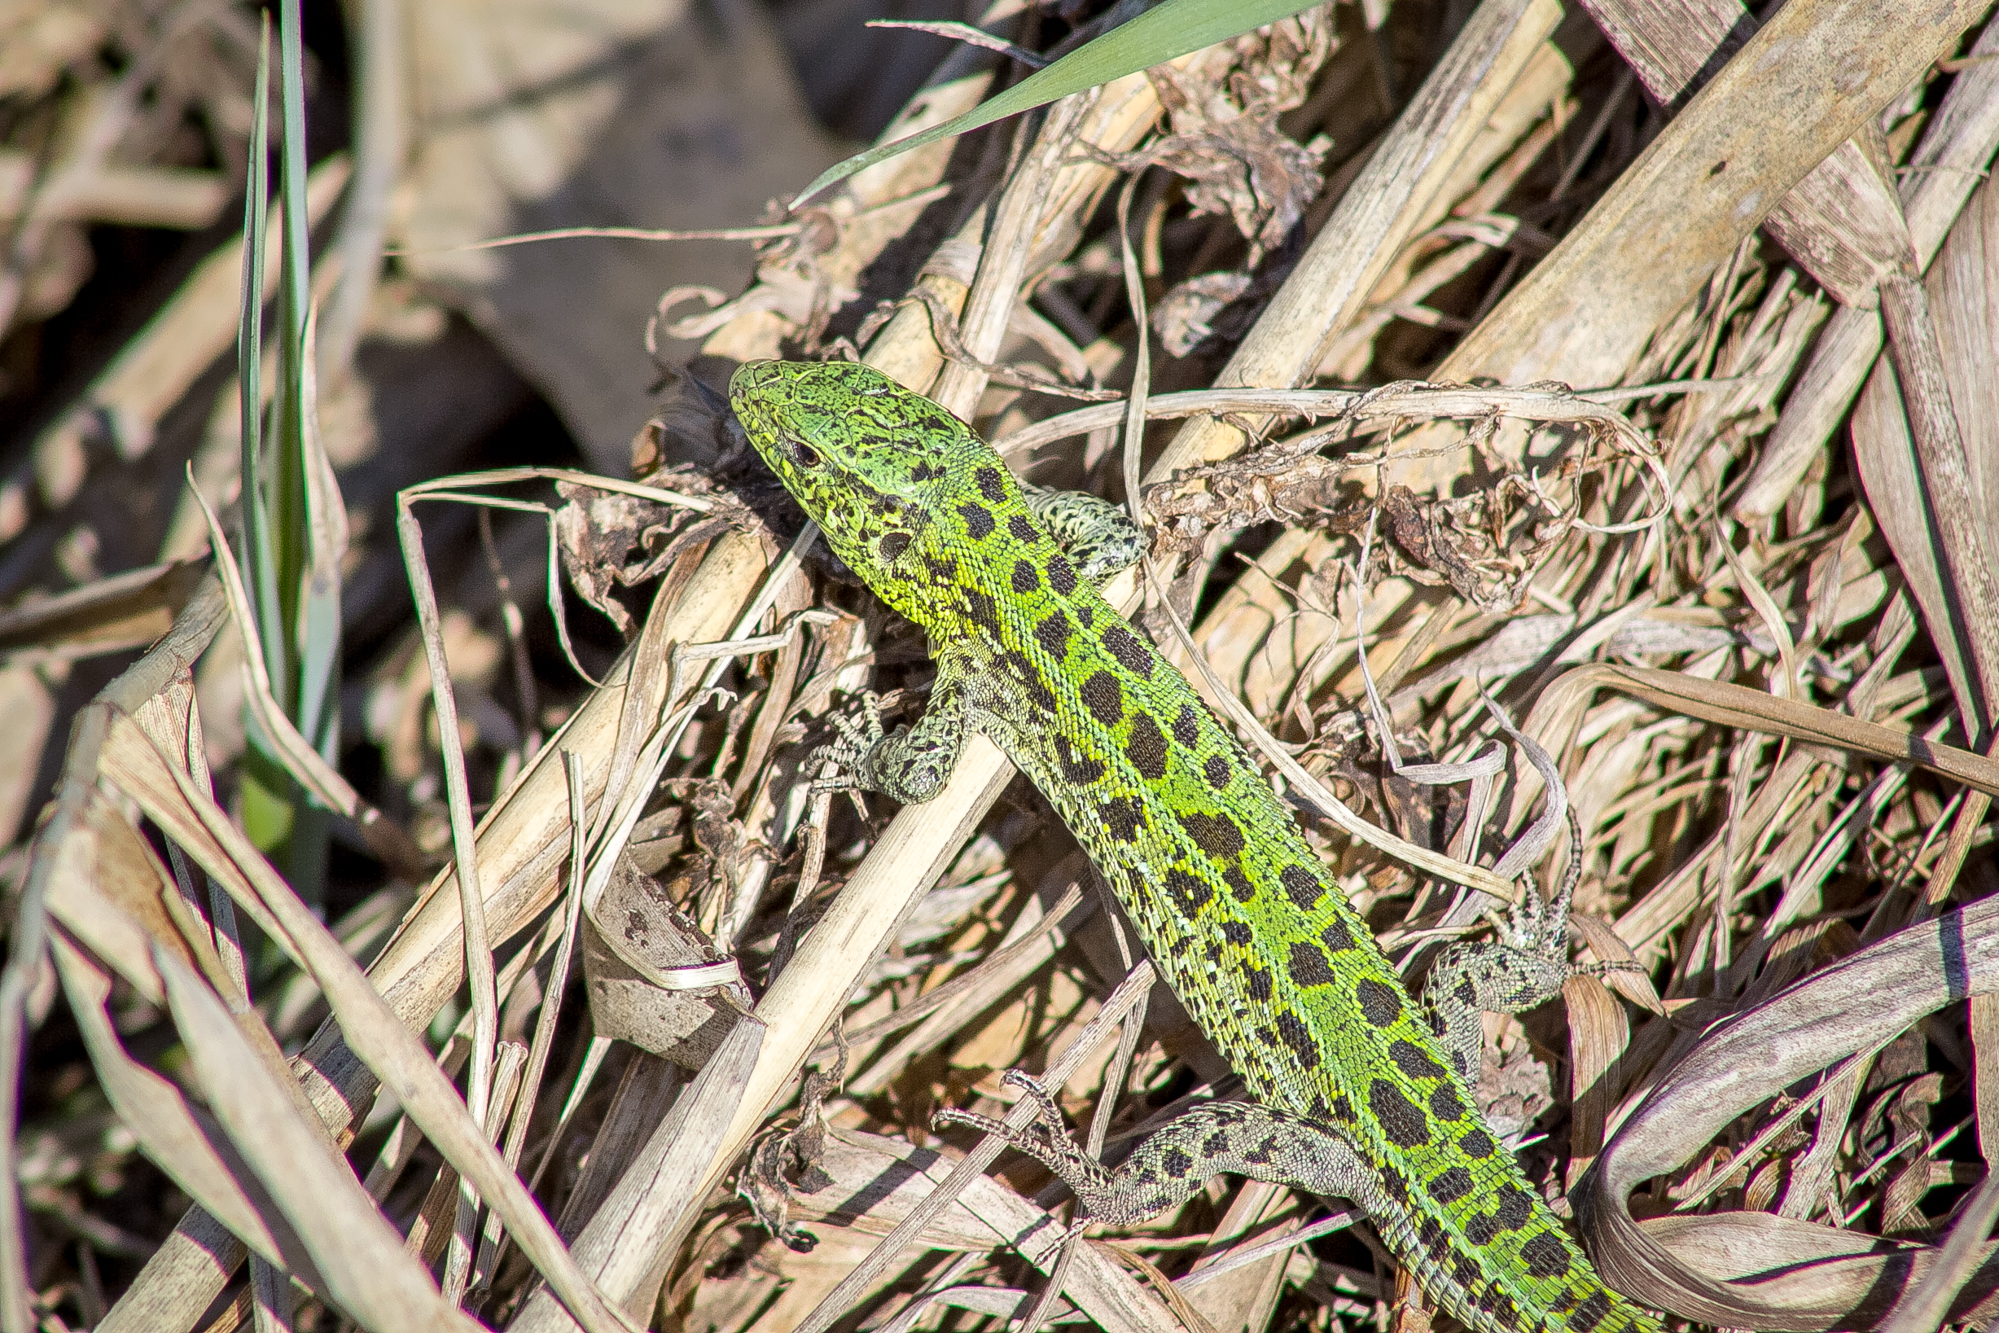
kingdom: Animalia
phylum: Chordata
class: Squamata
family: Lacertidae
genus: Lacerta
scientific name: Lacerta agilis
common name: Sand lizard
